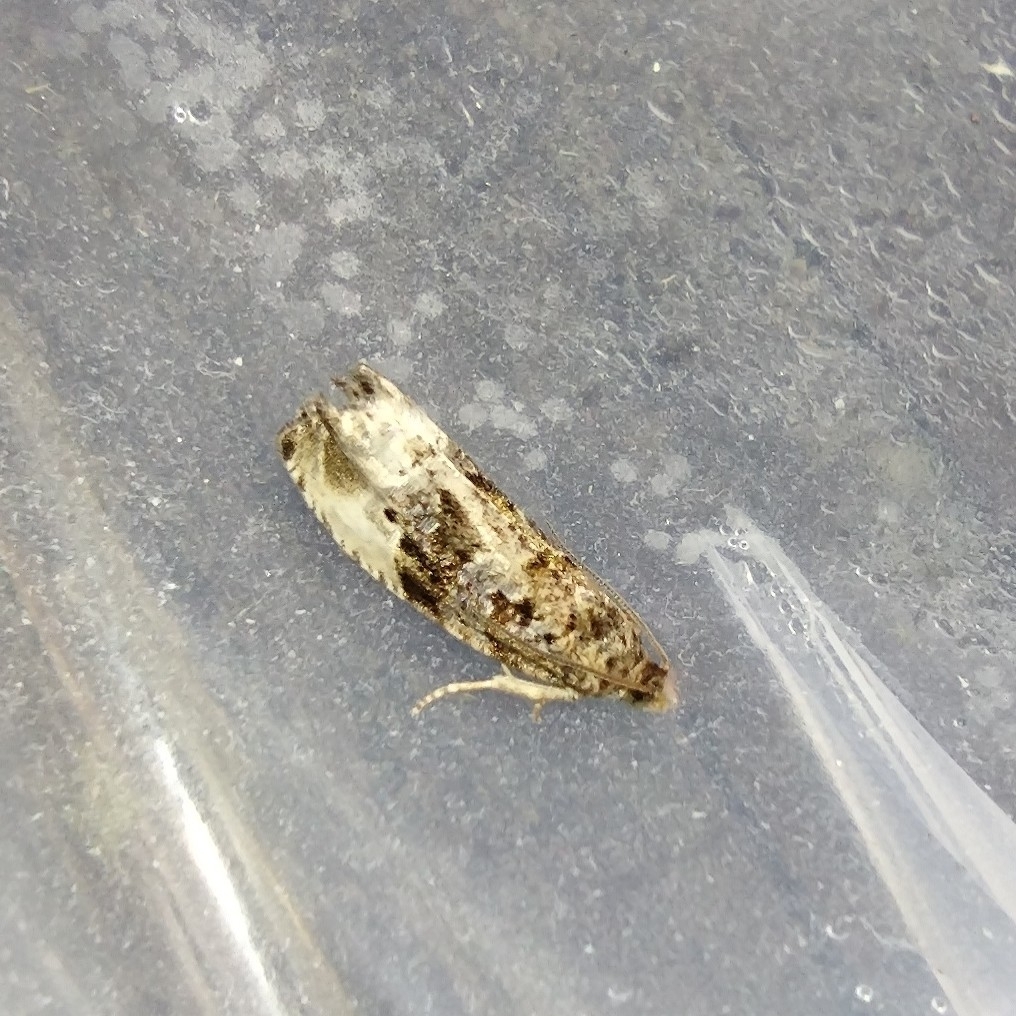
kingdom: Animalia
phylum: Arthropoda
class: Insecta
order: Lepidoptera
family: Tortricidae
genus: Hedya
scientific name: Hedya nubiferana
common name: Marbled orchard tortrix
